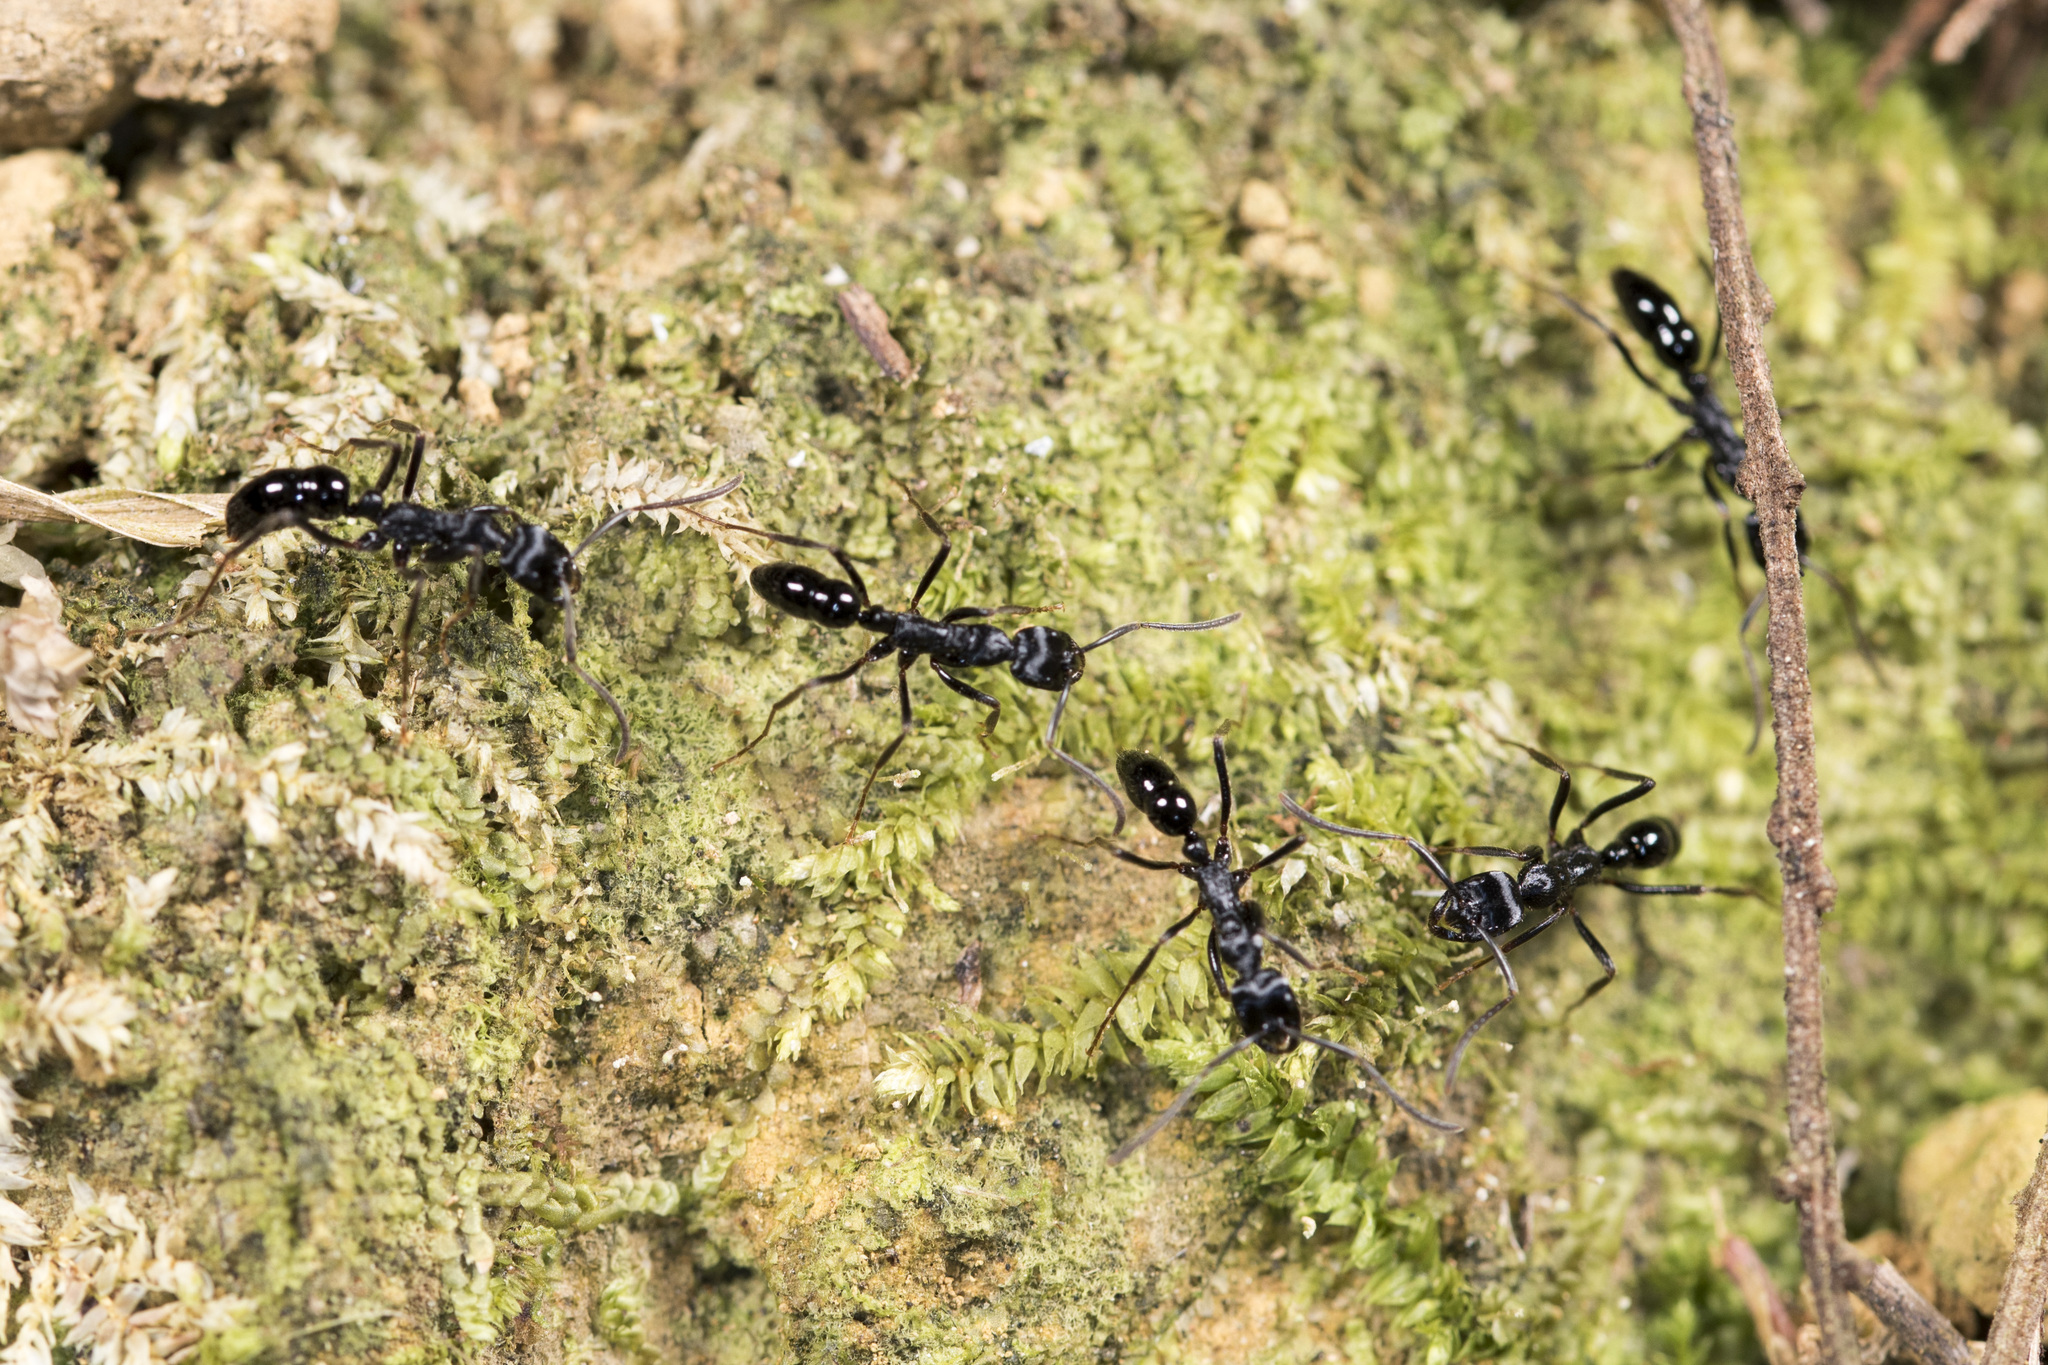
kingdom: Animalia
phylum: Arthropoda
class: Insecta
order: Hymenoptera
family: Formicidae
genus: Leptogenys
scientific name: Leptogenys kitteli
